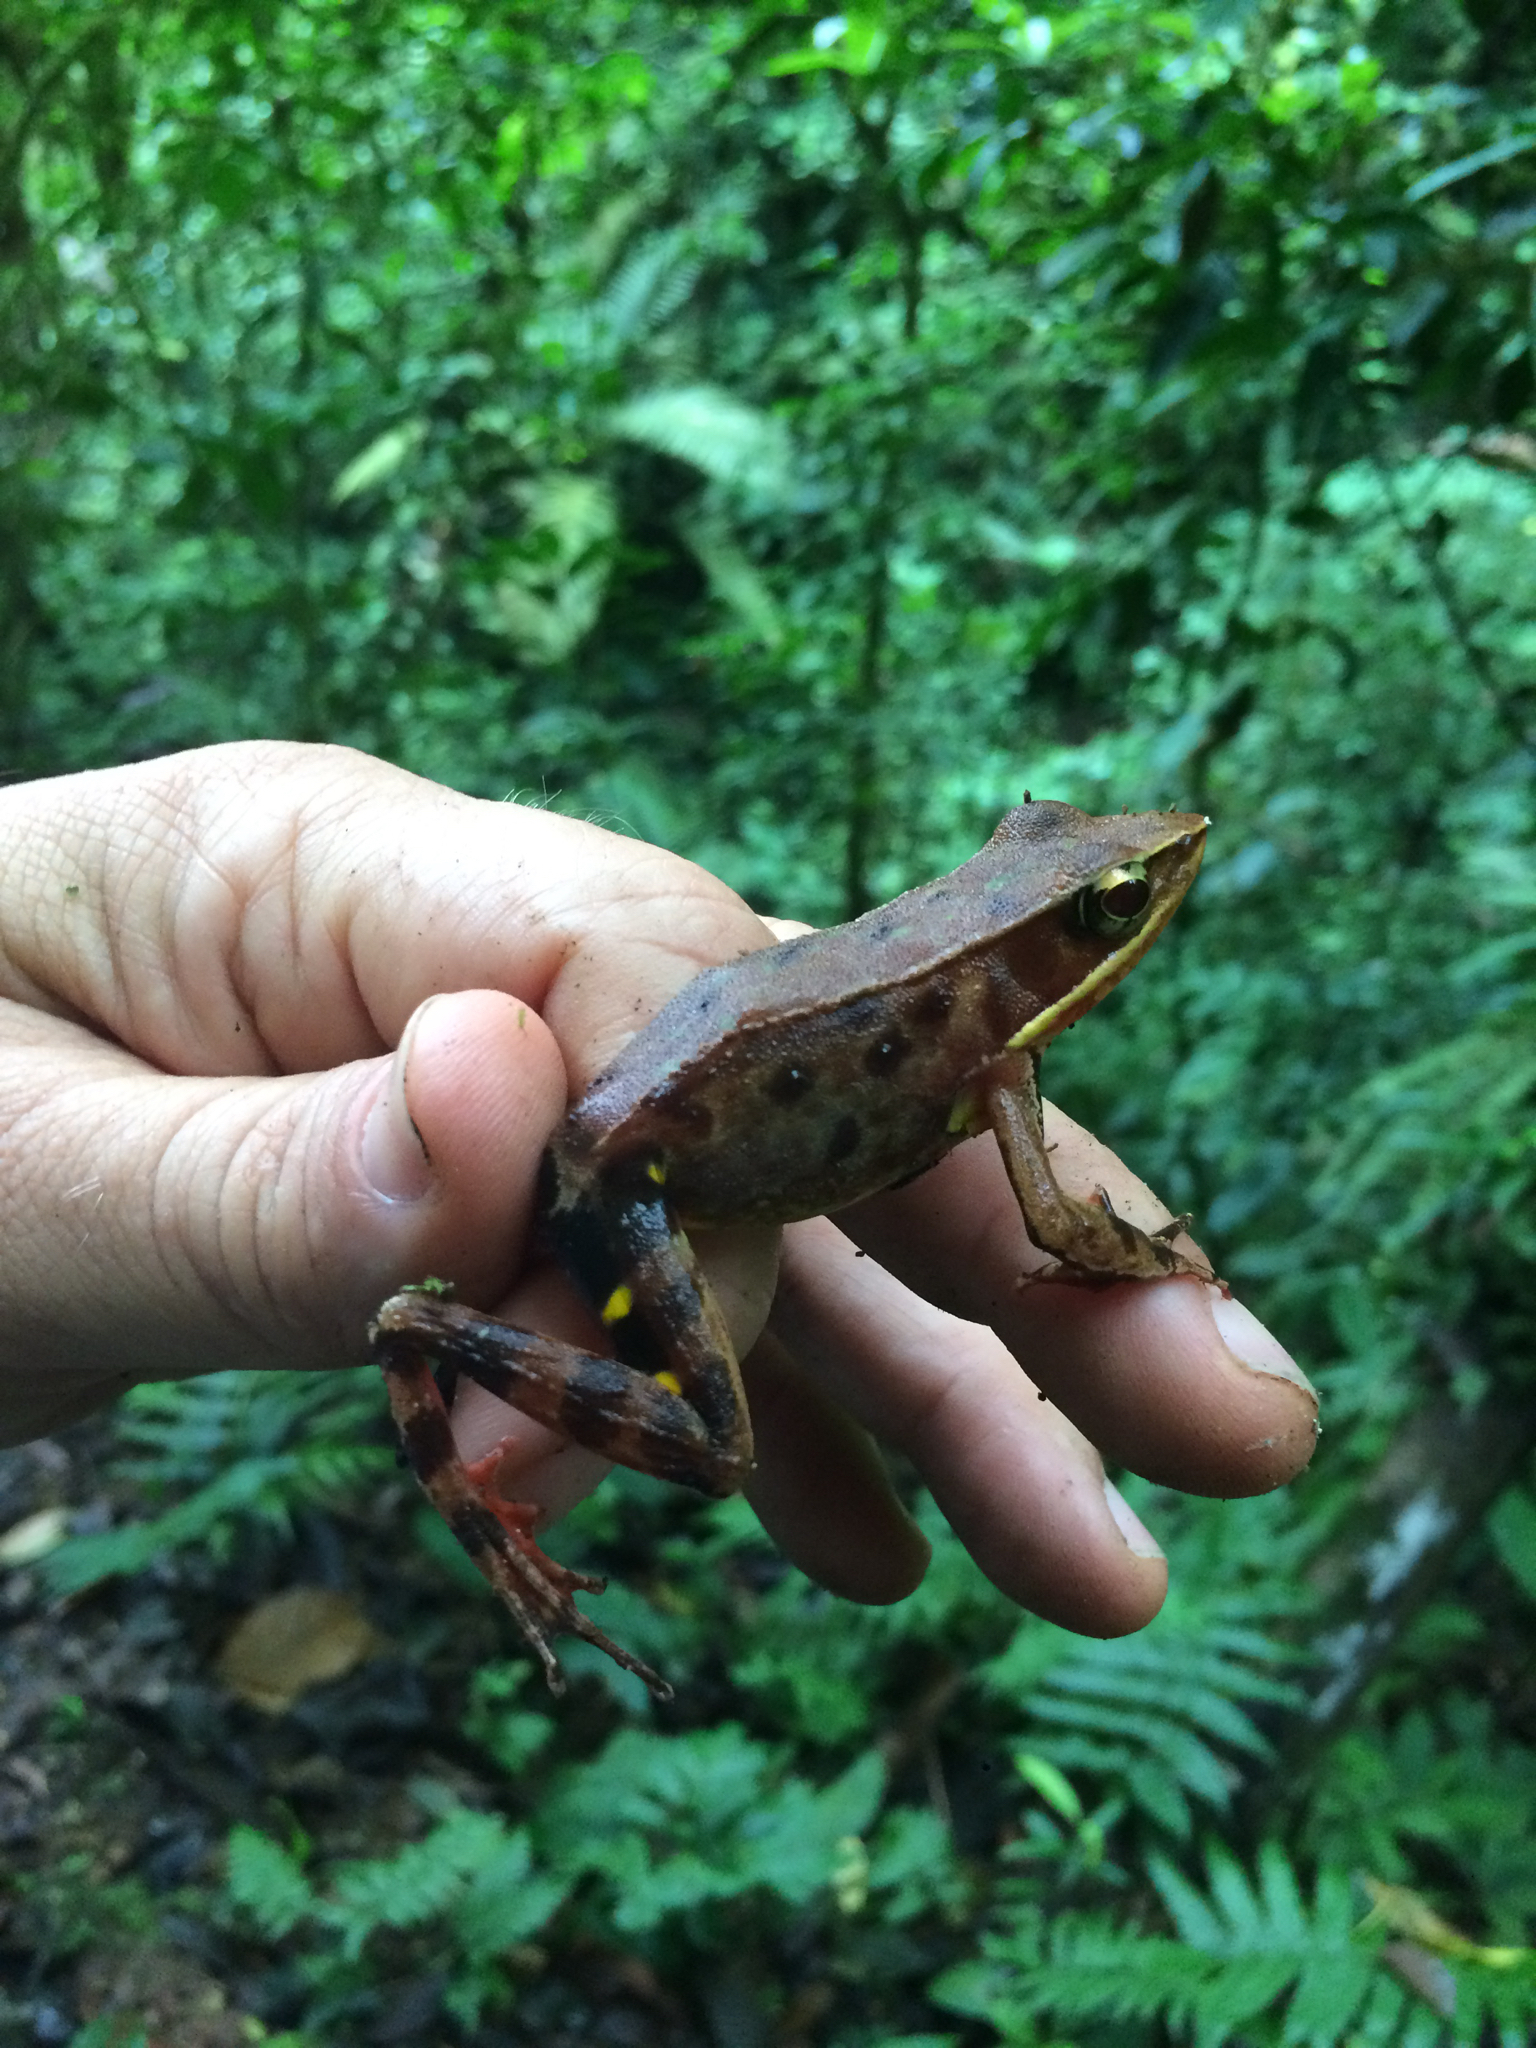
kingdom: Animalia
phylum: Chordata
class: Amphibia
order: Anura
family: Ranidae
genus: Lithobates
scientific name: Lithobates warszewitschii
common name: Warszewitsch's frog
